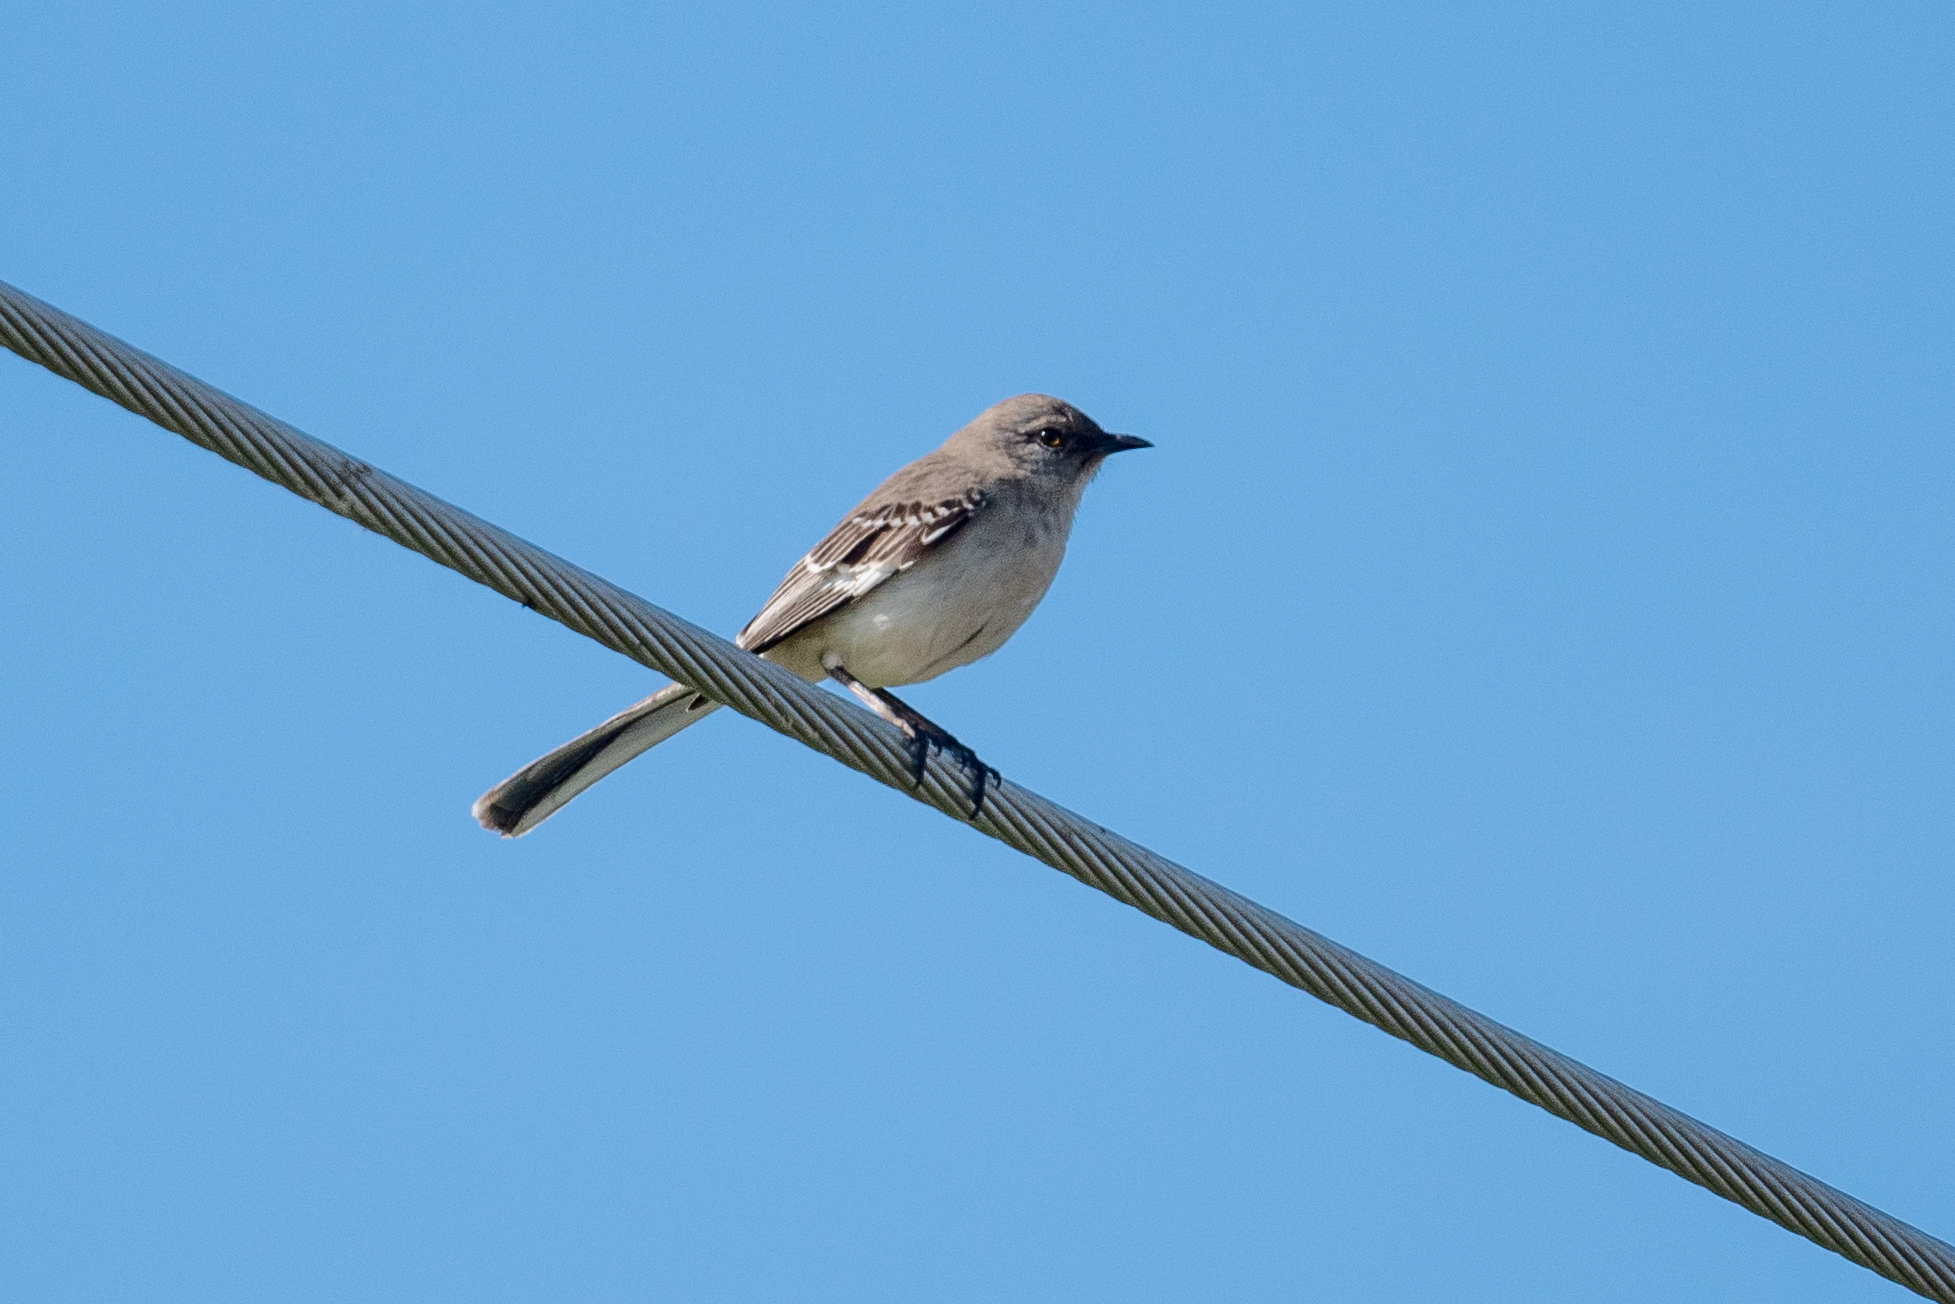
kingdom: Animalia
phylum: Chordata
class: Aves
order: Passeriformes
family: Mimidae
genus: Mimus
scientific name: Mimus polyglottos
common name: Northern mockingbird
